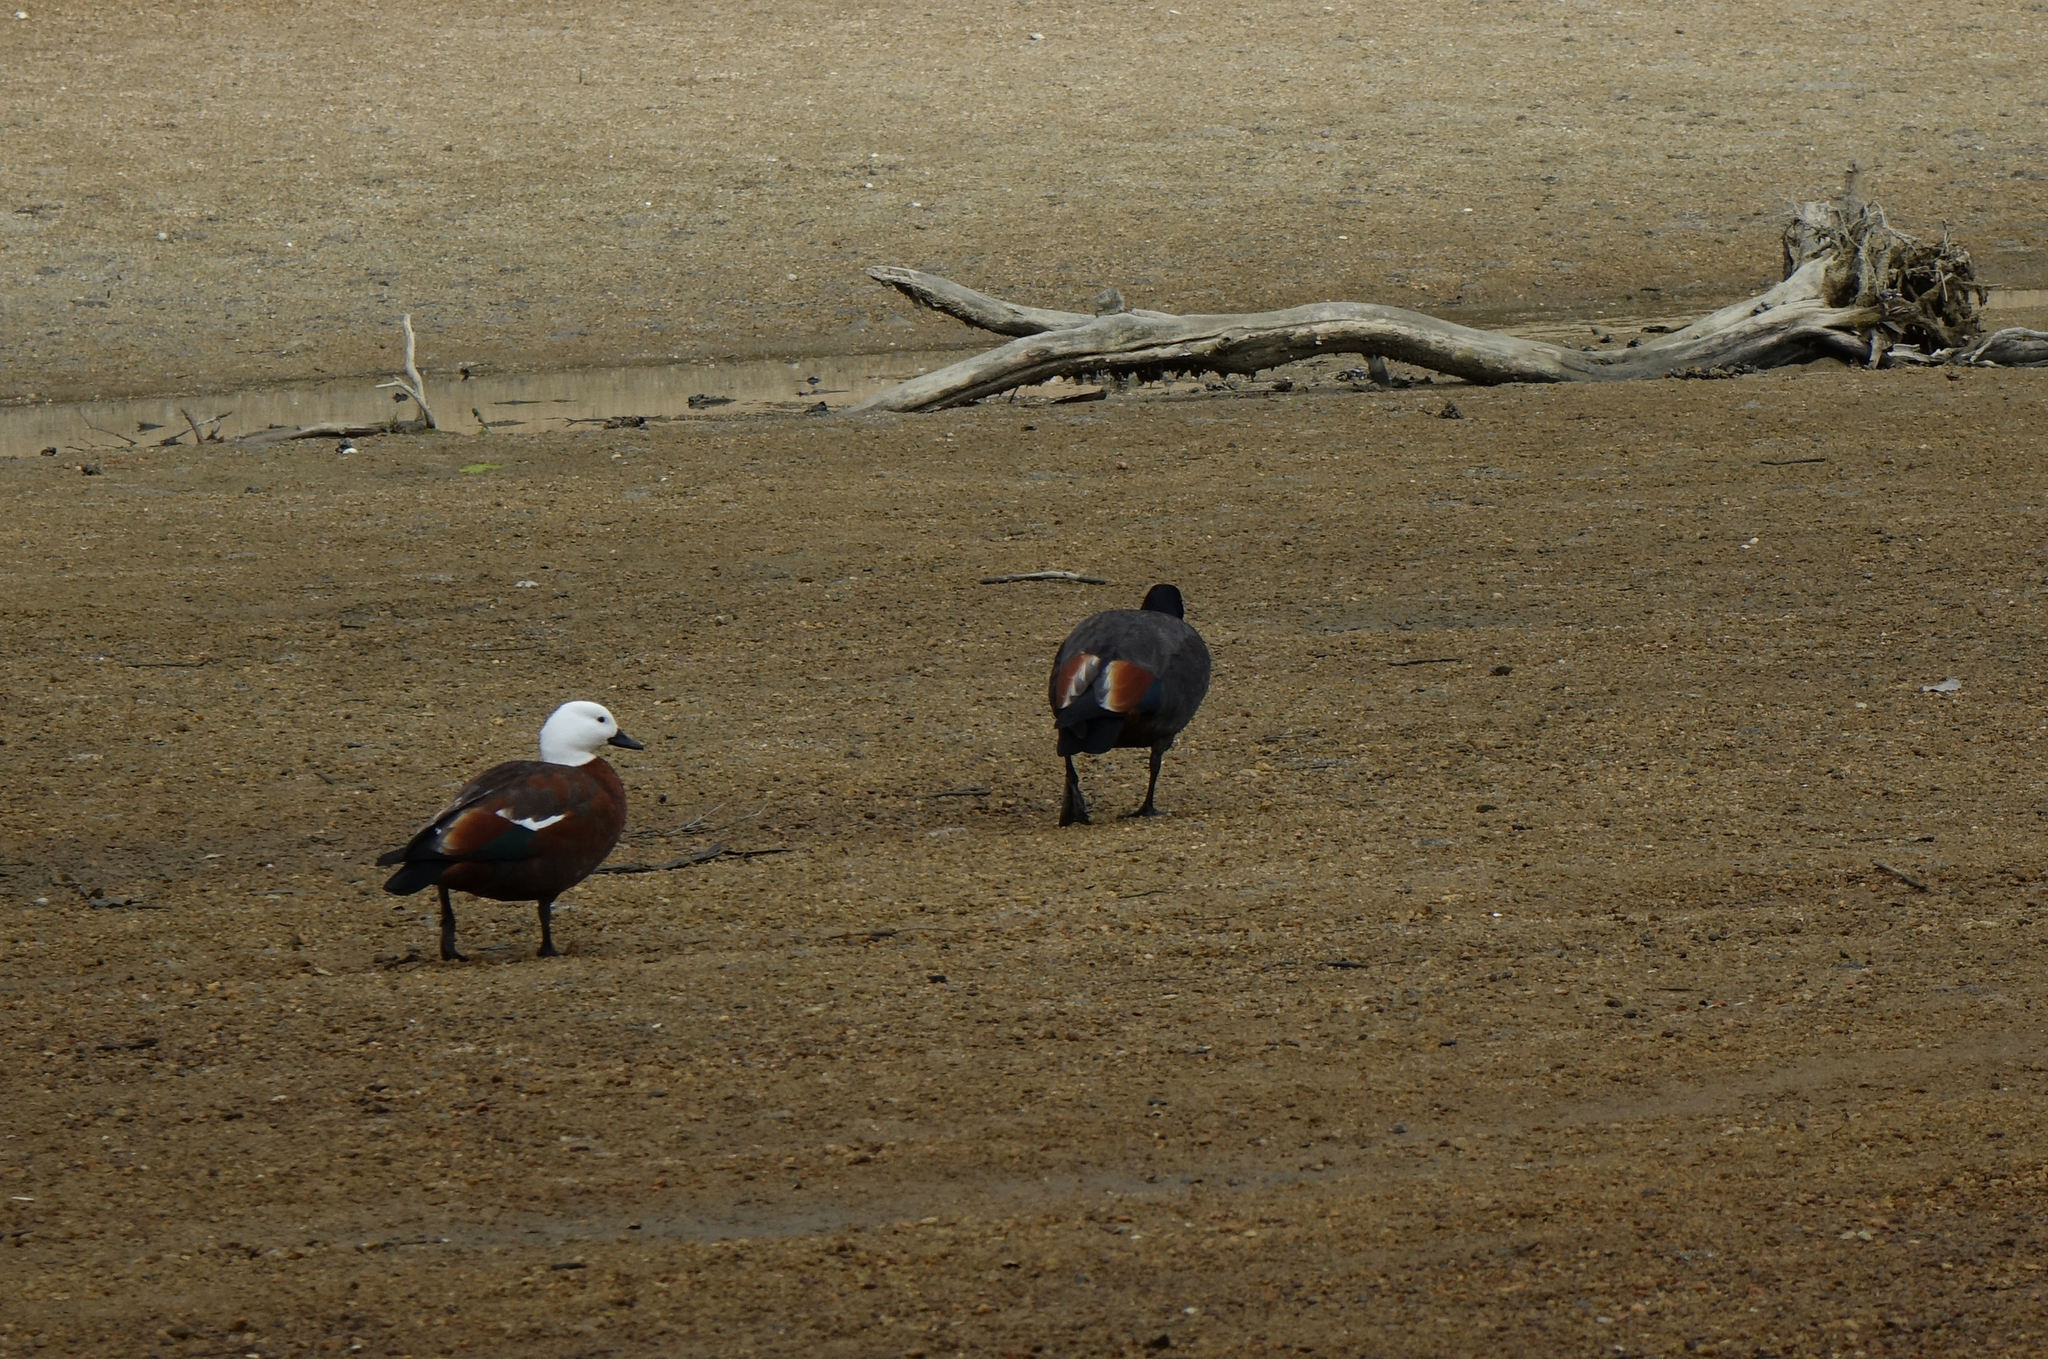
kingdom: Animalia
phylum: Chordata
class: Aves
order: Anseriformes
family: Anatidae
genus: Tadorna
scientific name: Tadorna variegata
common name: Paradise shelduck
